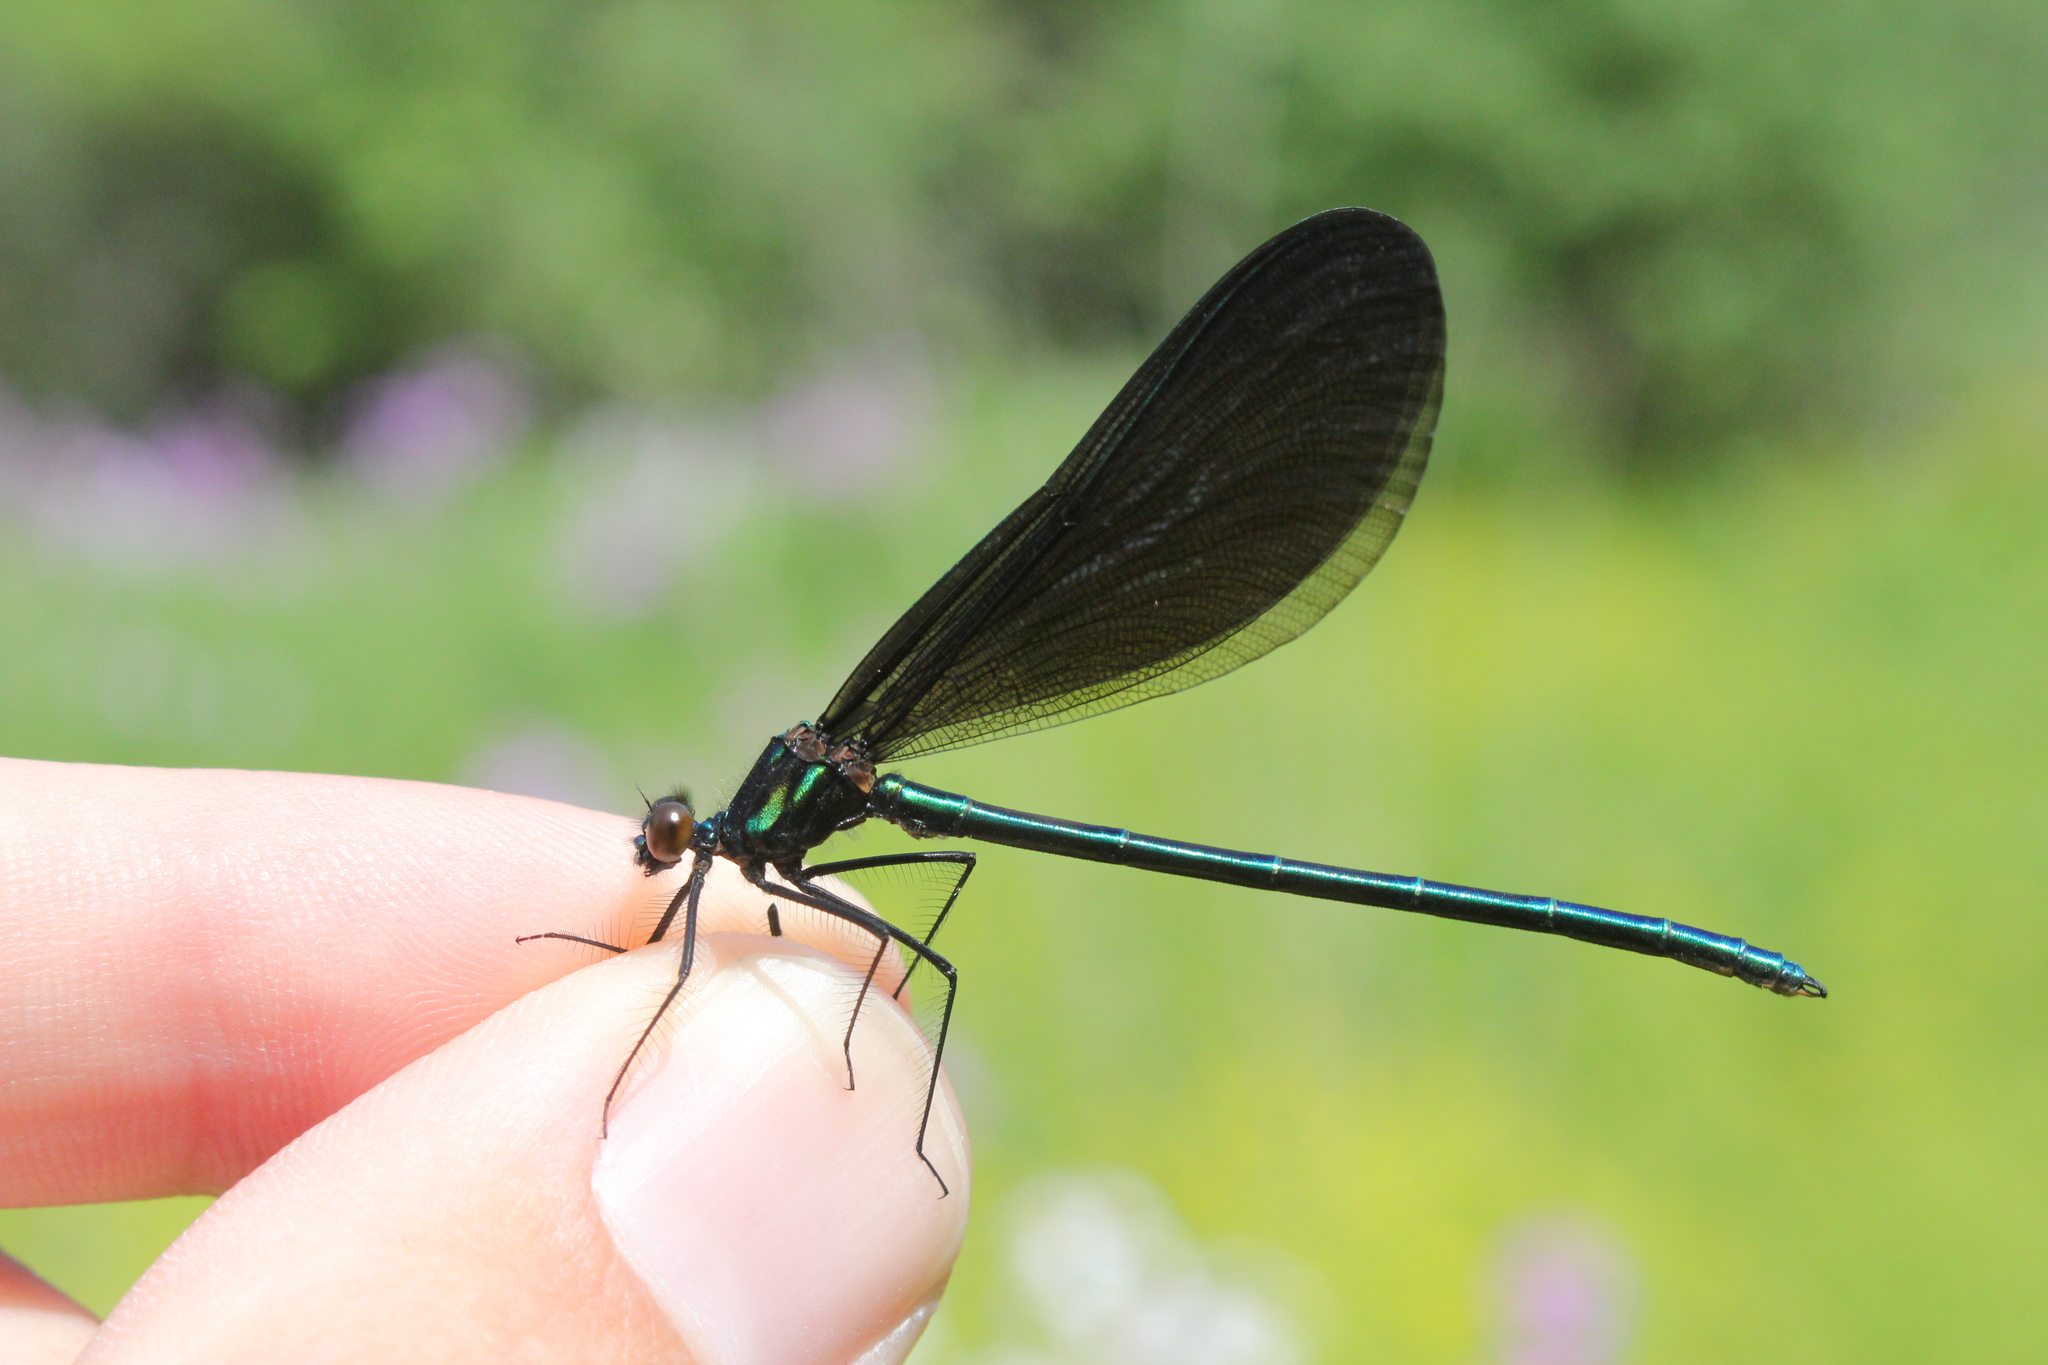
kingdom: Animalia
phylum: Arthropoda
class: Insecta
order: Odonata
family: Calopterygidae
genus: Calopteryx
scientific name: Calopteryx maculata
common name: Ebony jewelwing
